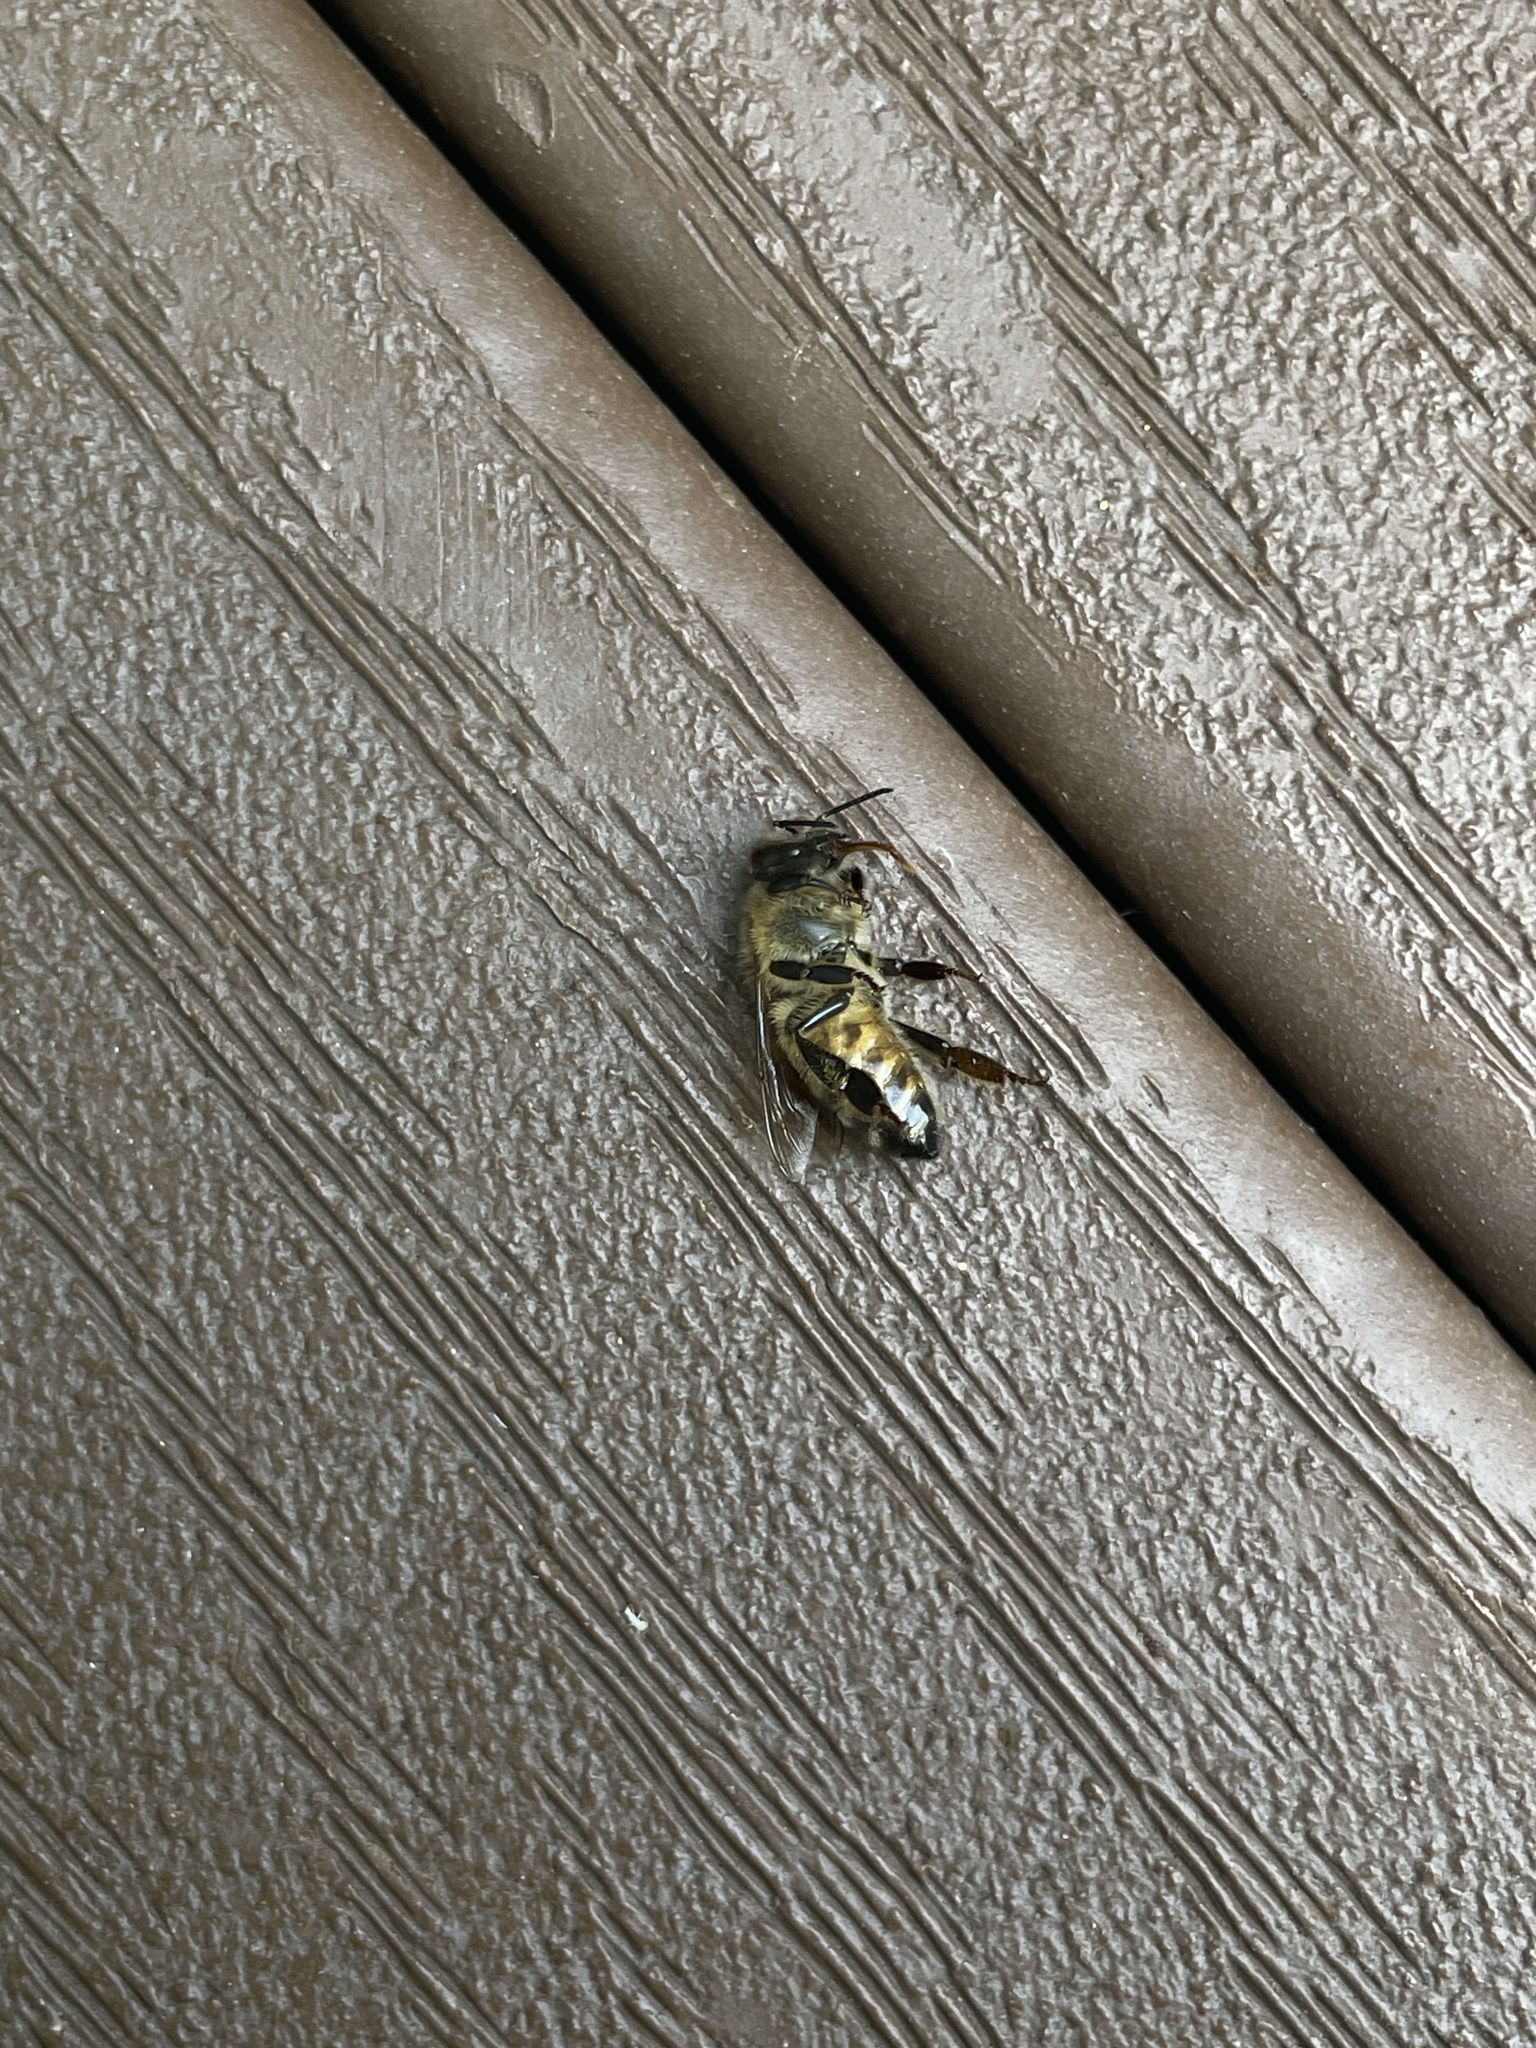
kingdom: Animalia
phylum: Arthropoda
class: Insecta
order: Hymenoptera
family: Apidae
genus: Apis
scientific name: Apis mellifera
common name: Honey bee
